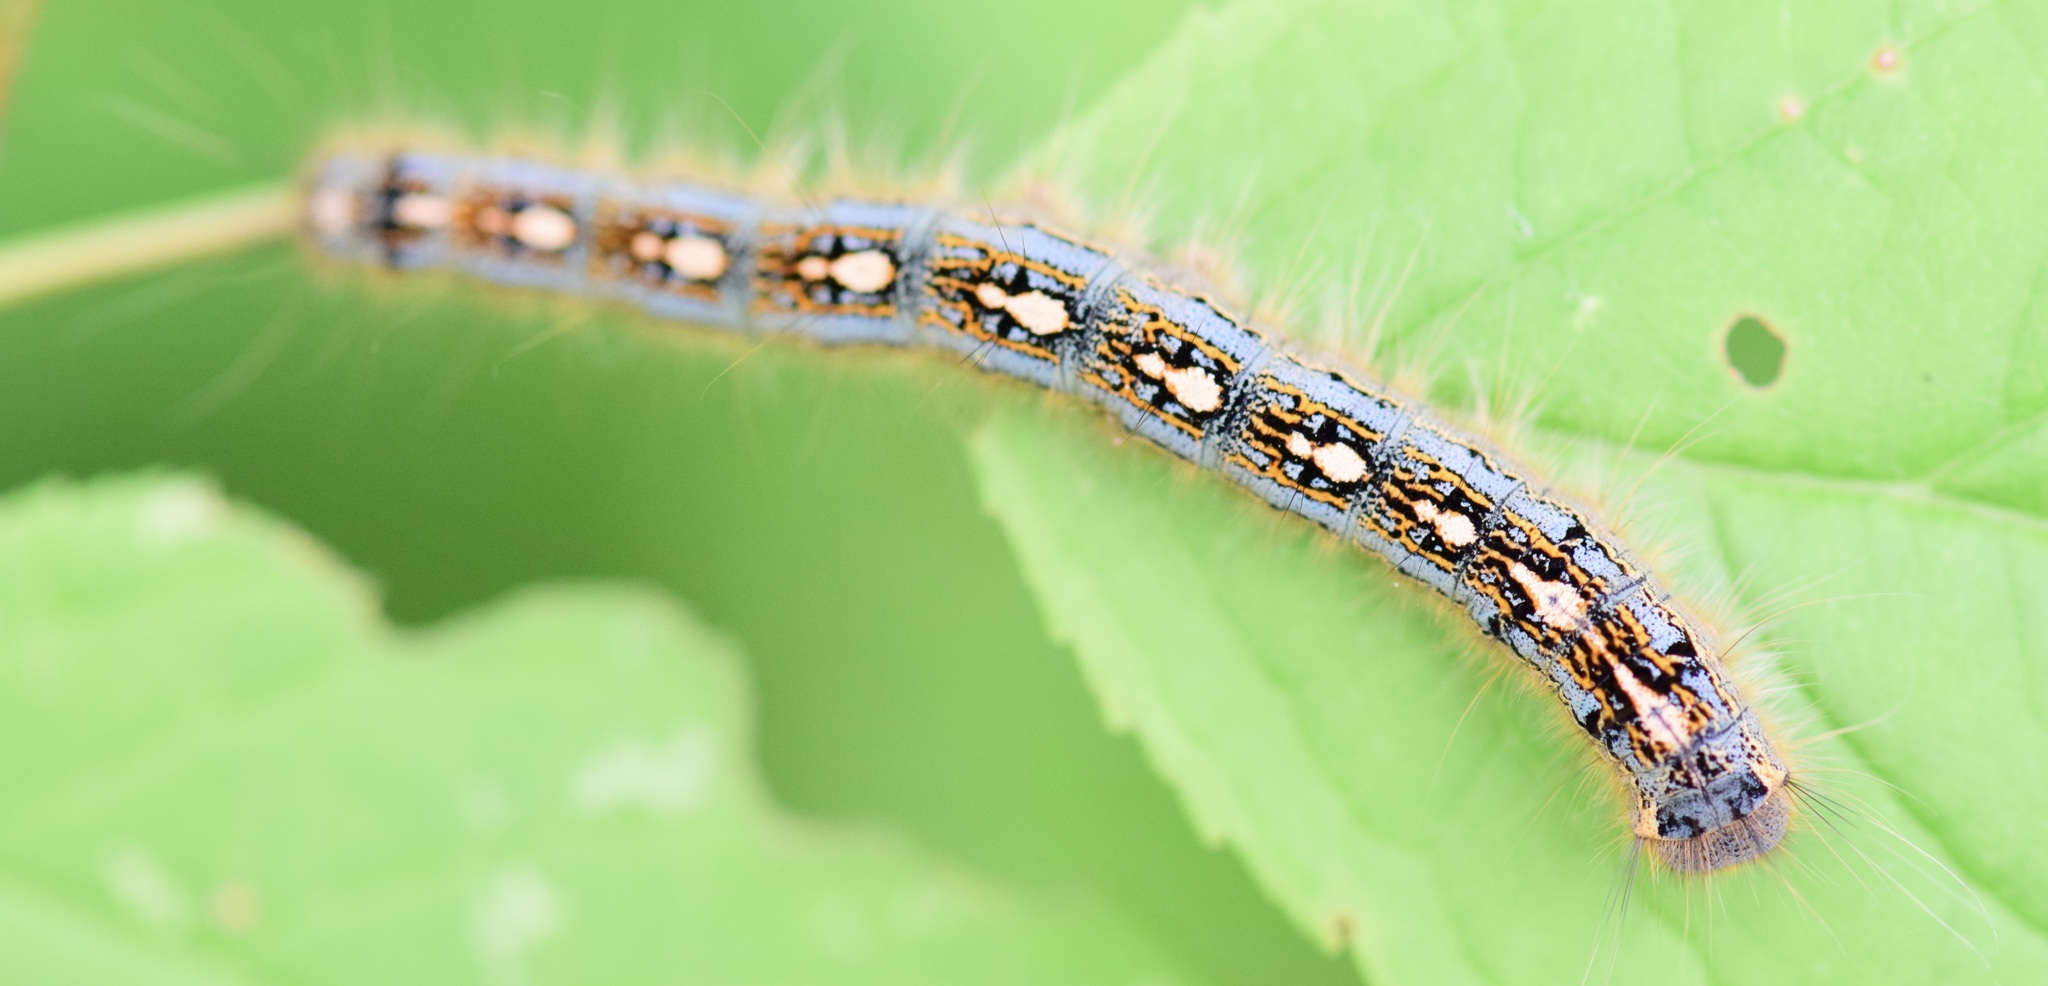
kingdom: Animalia
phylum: Arthropoda
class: Insecta
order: Lepidoptera
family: Lasiocampidae
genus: Malacosoma
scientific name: Malacosoma disstria
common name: Forest tent caterpillar
